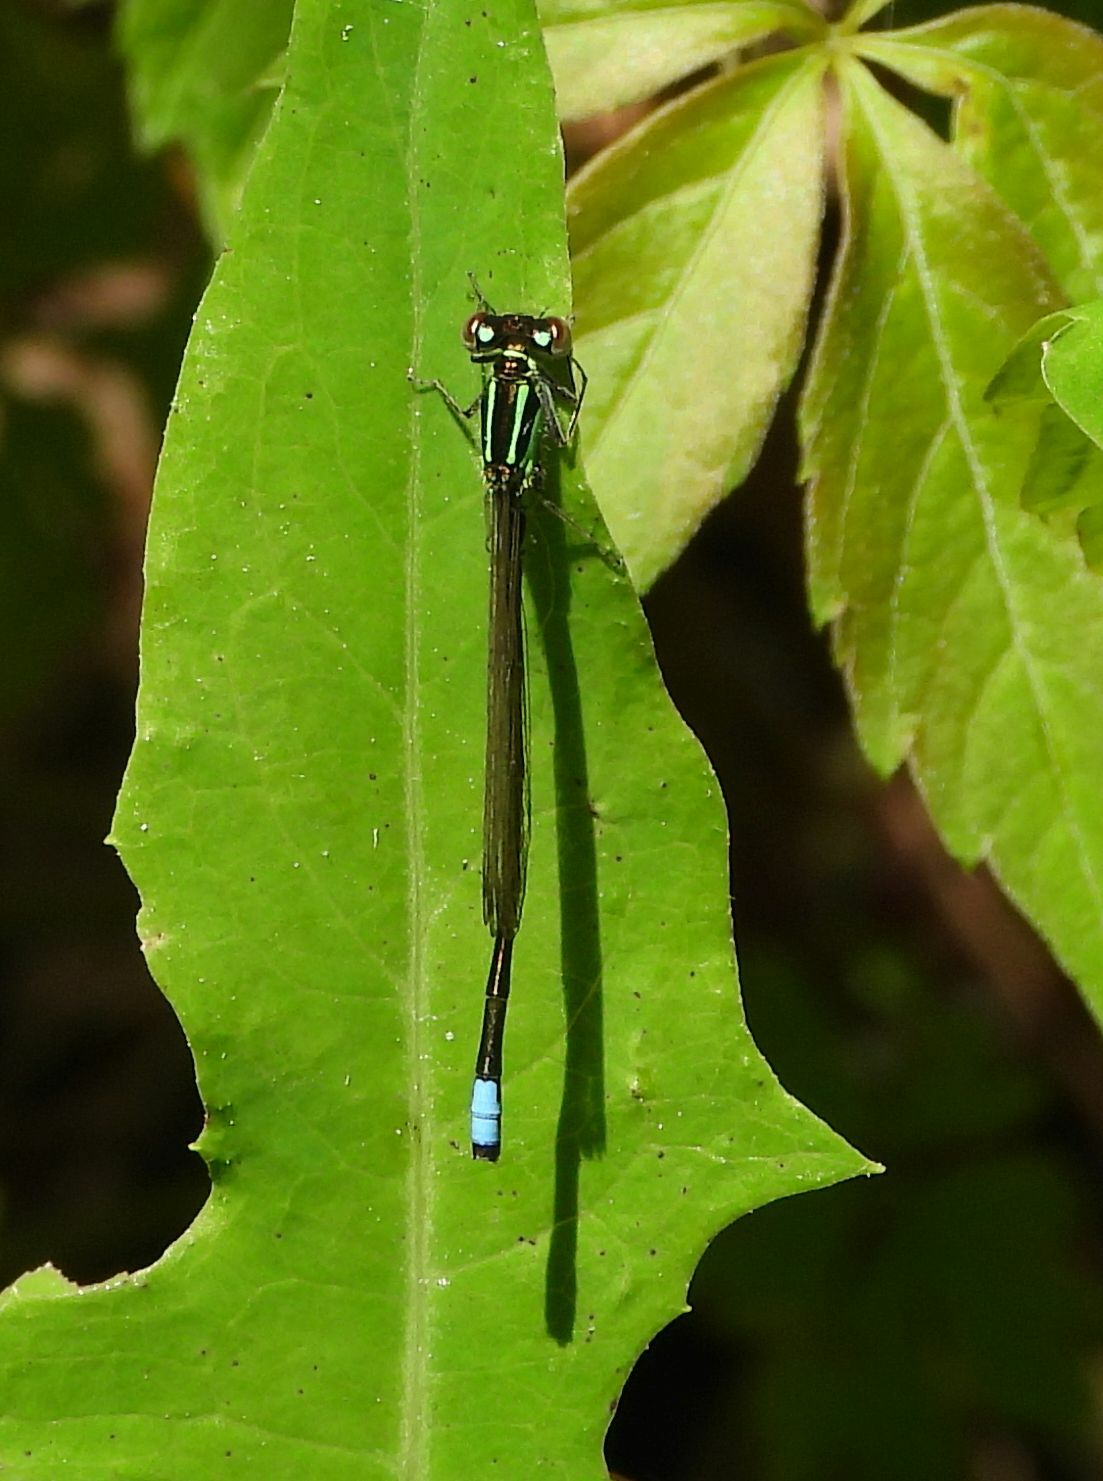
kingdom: Animalia
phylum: Arthropoda
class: Insecta
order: Odonata
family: Coenagrionidae
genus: Ischnura
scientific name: Ischnura verticalis
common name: Eastern forktail
